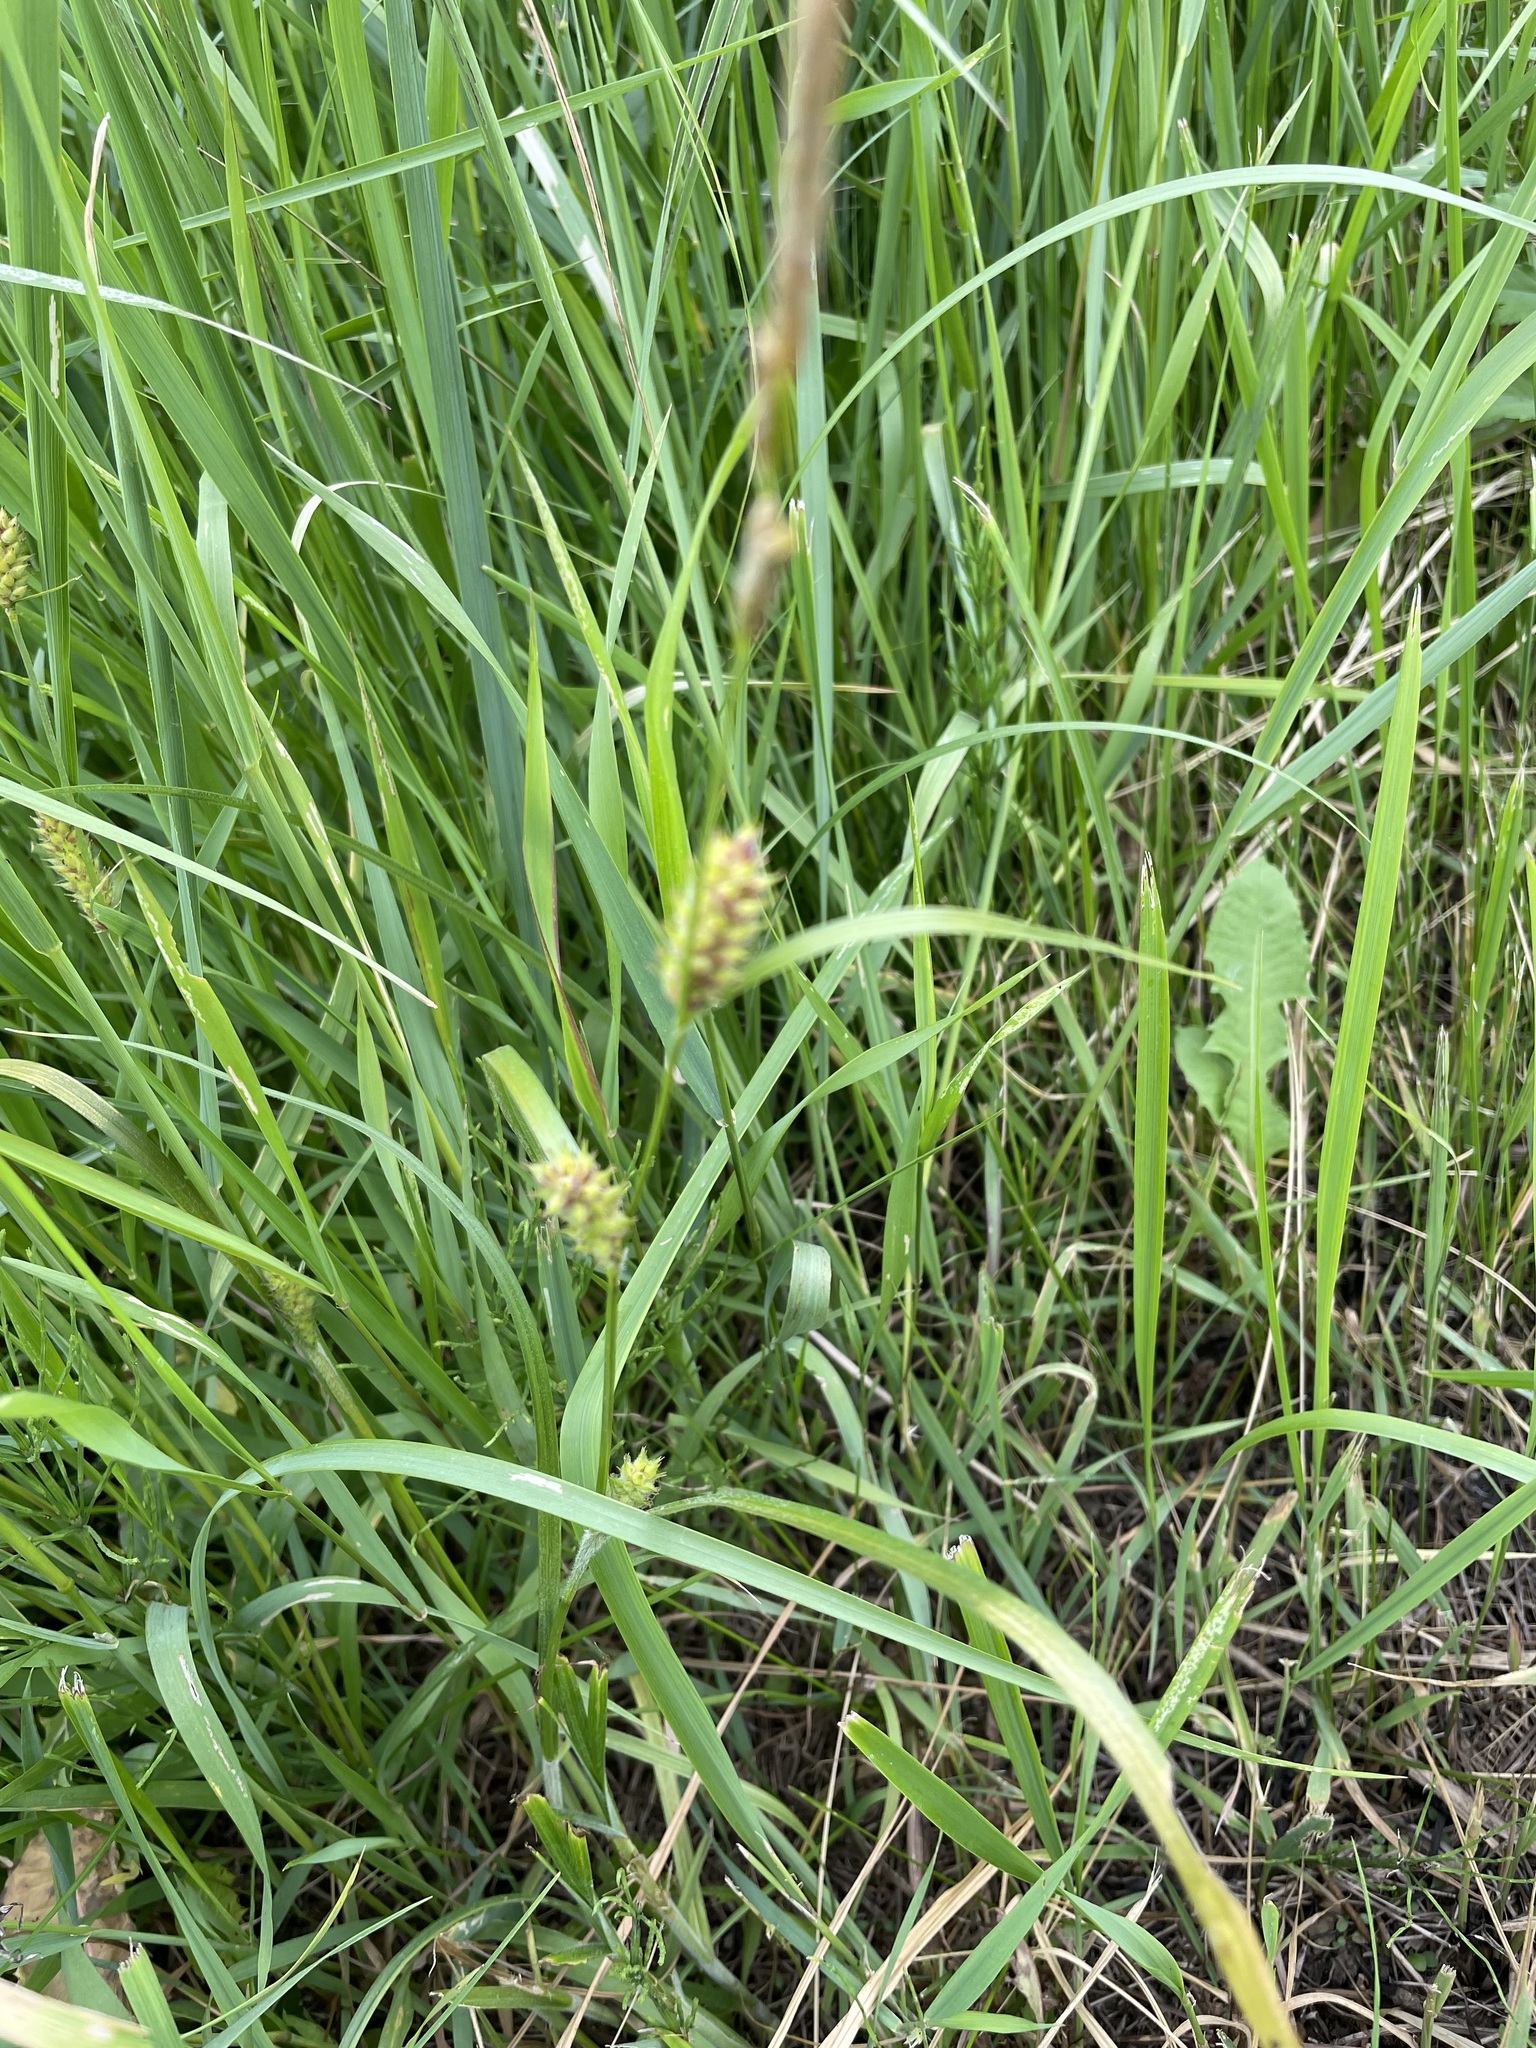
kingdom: Plantae
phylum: Tracheophyta
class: Liliopsida
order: Poales
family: Cyperaceae
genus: Carex
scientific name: Carex hirta
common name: Hairy sedge
